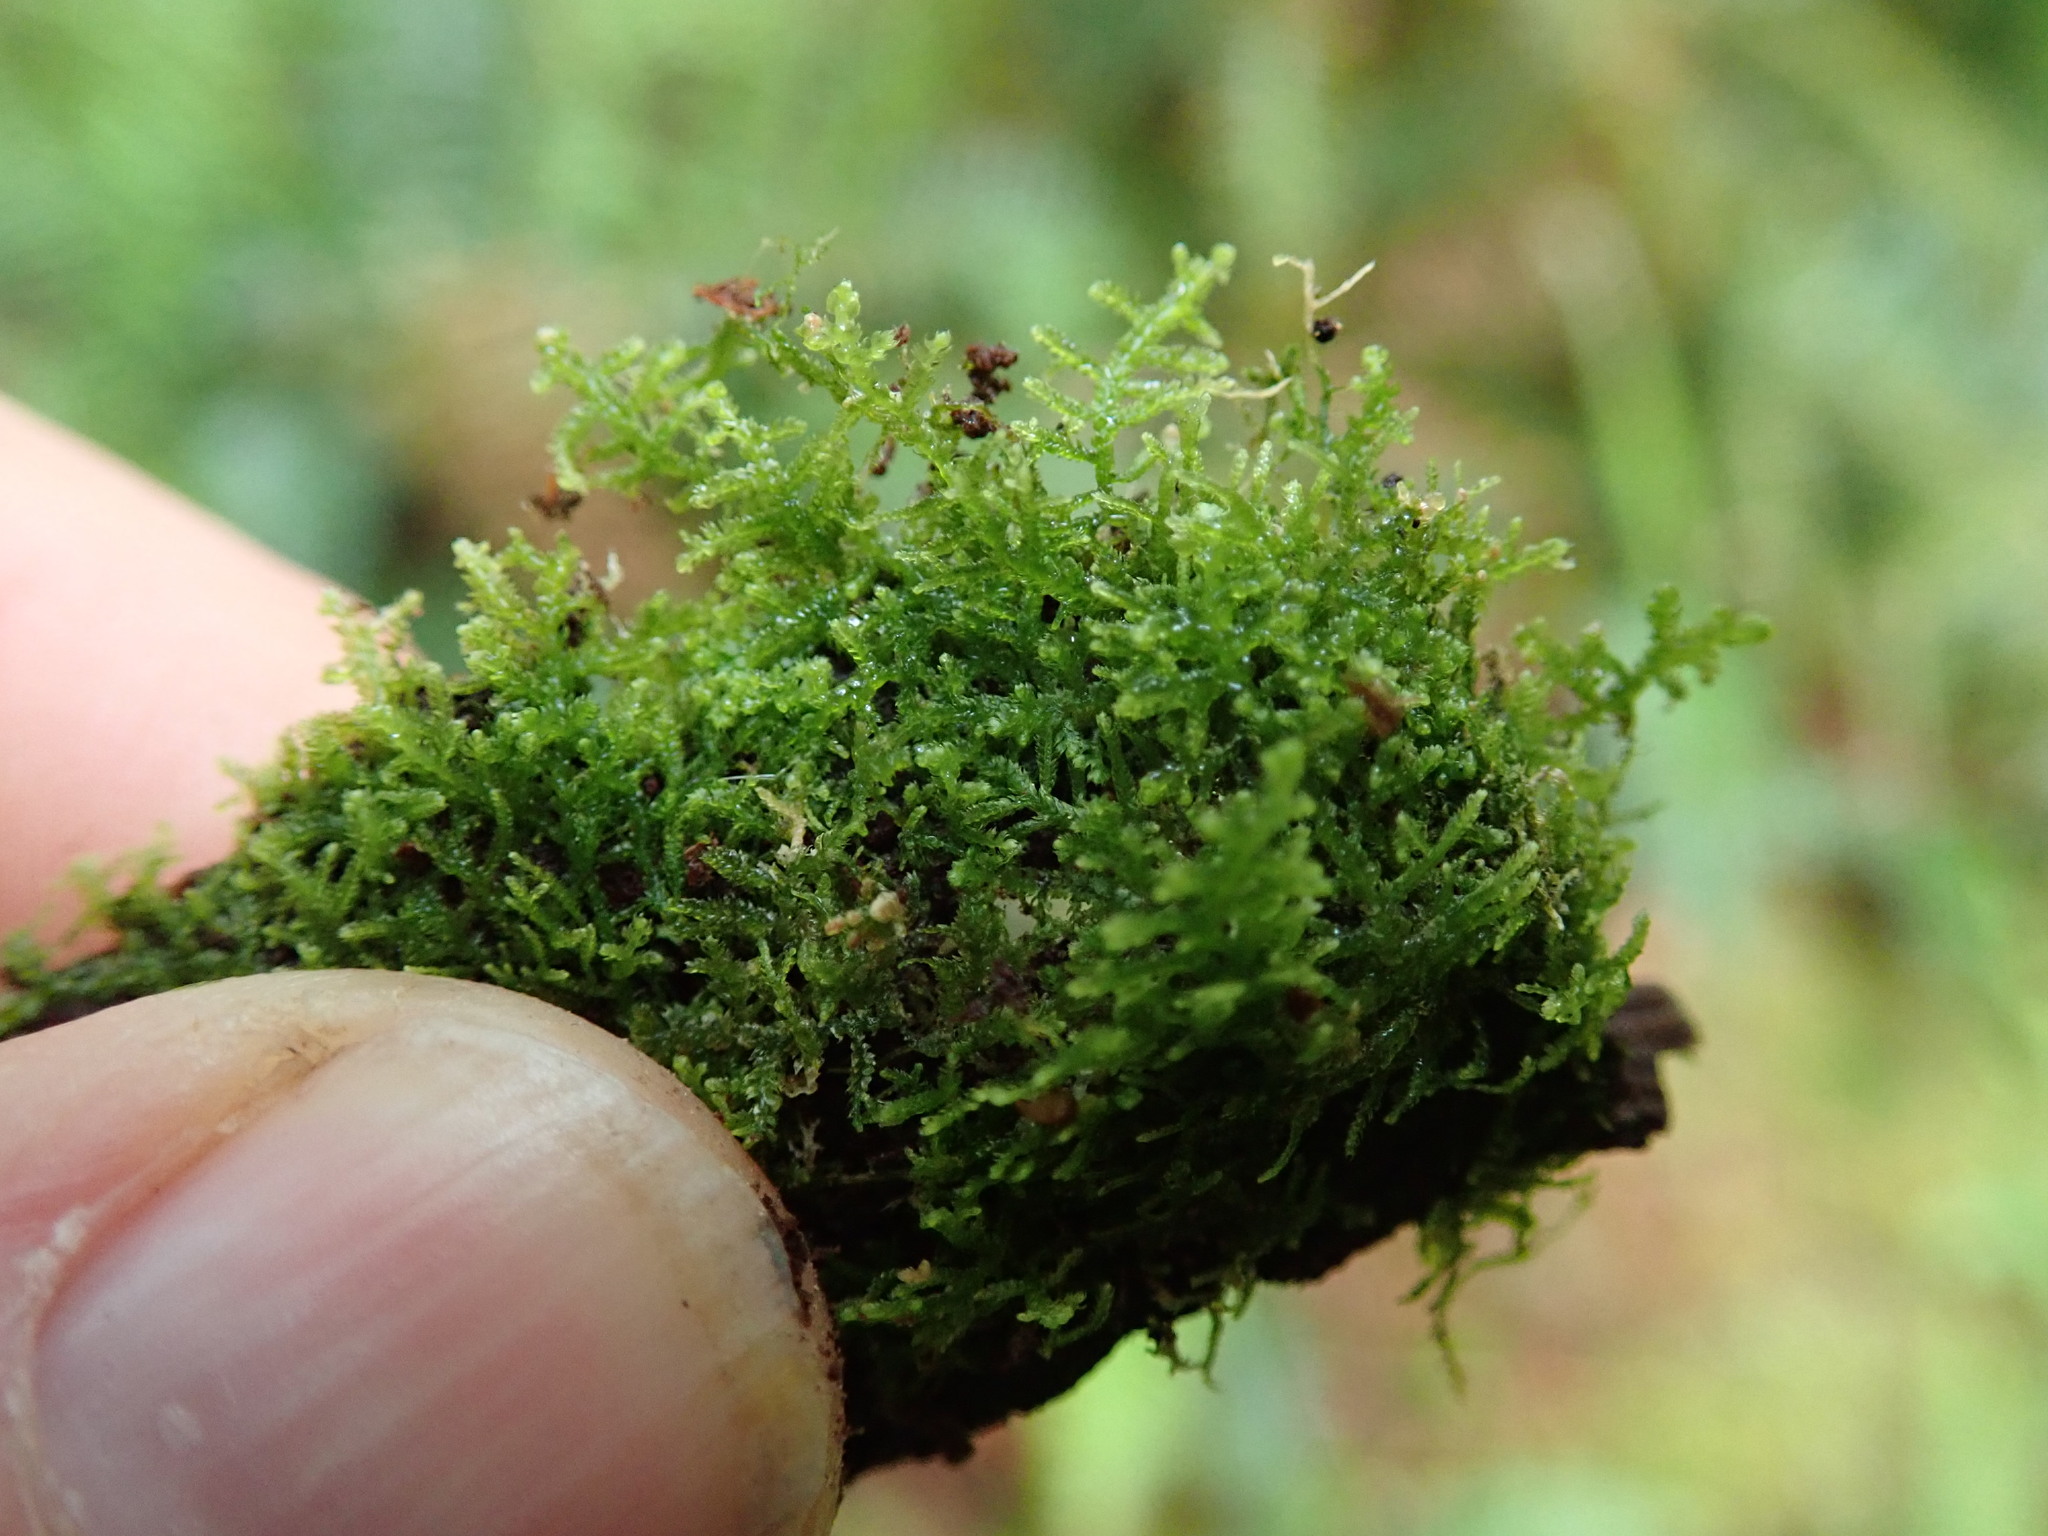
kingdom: Plantae
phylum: Marchantiophyta
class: Jungermanniopsida
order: Jungermanniales
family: Lepidoziaceae
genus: Lepidozia
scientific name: Lepidozia reptans
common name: Creeping fingerwort
